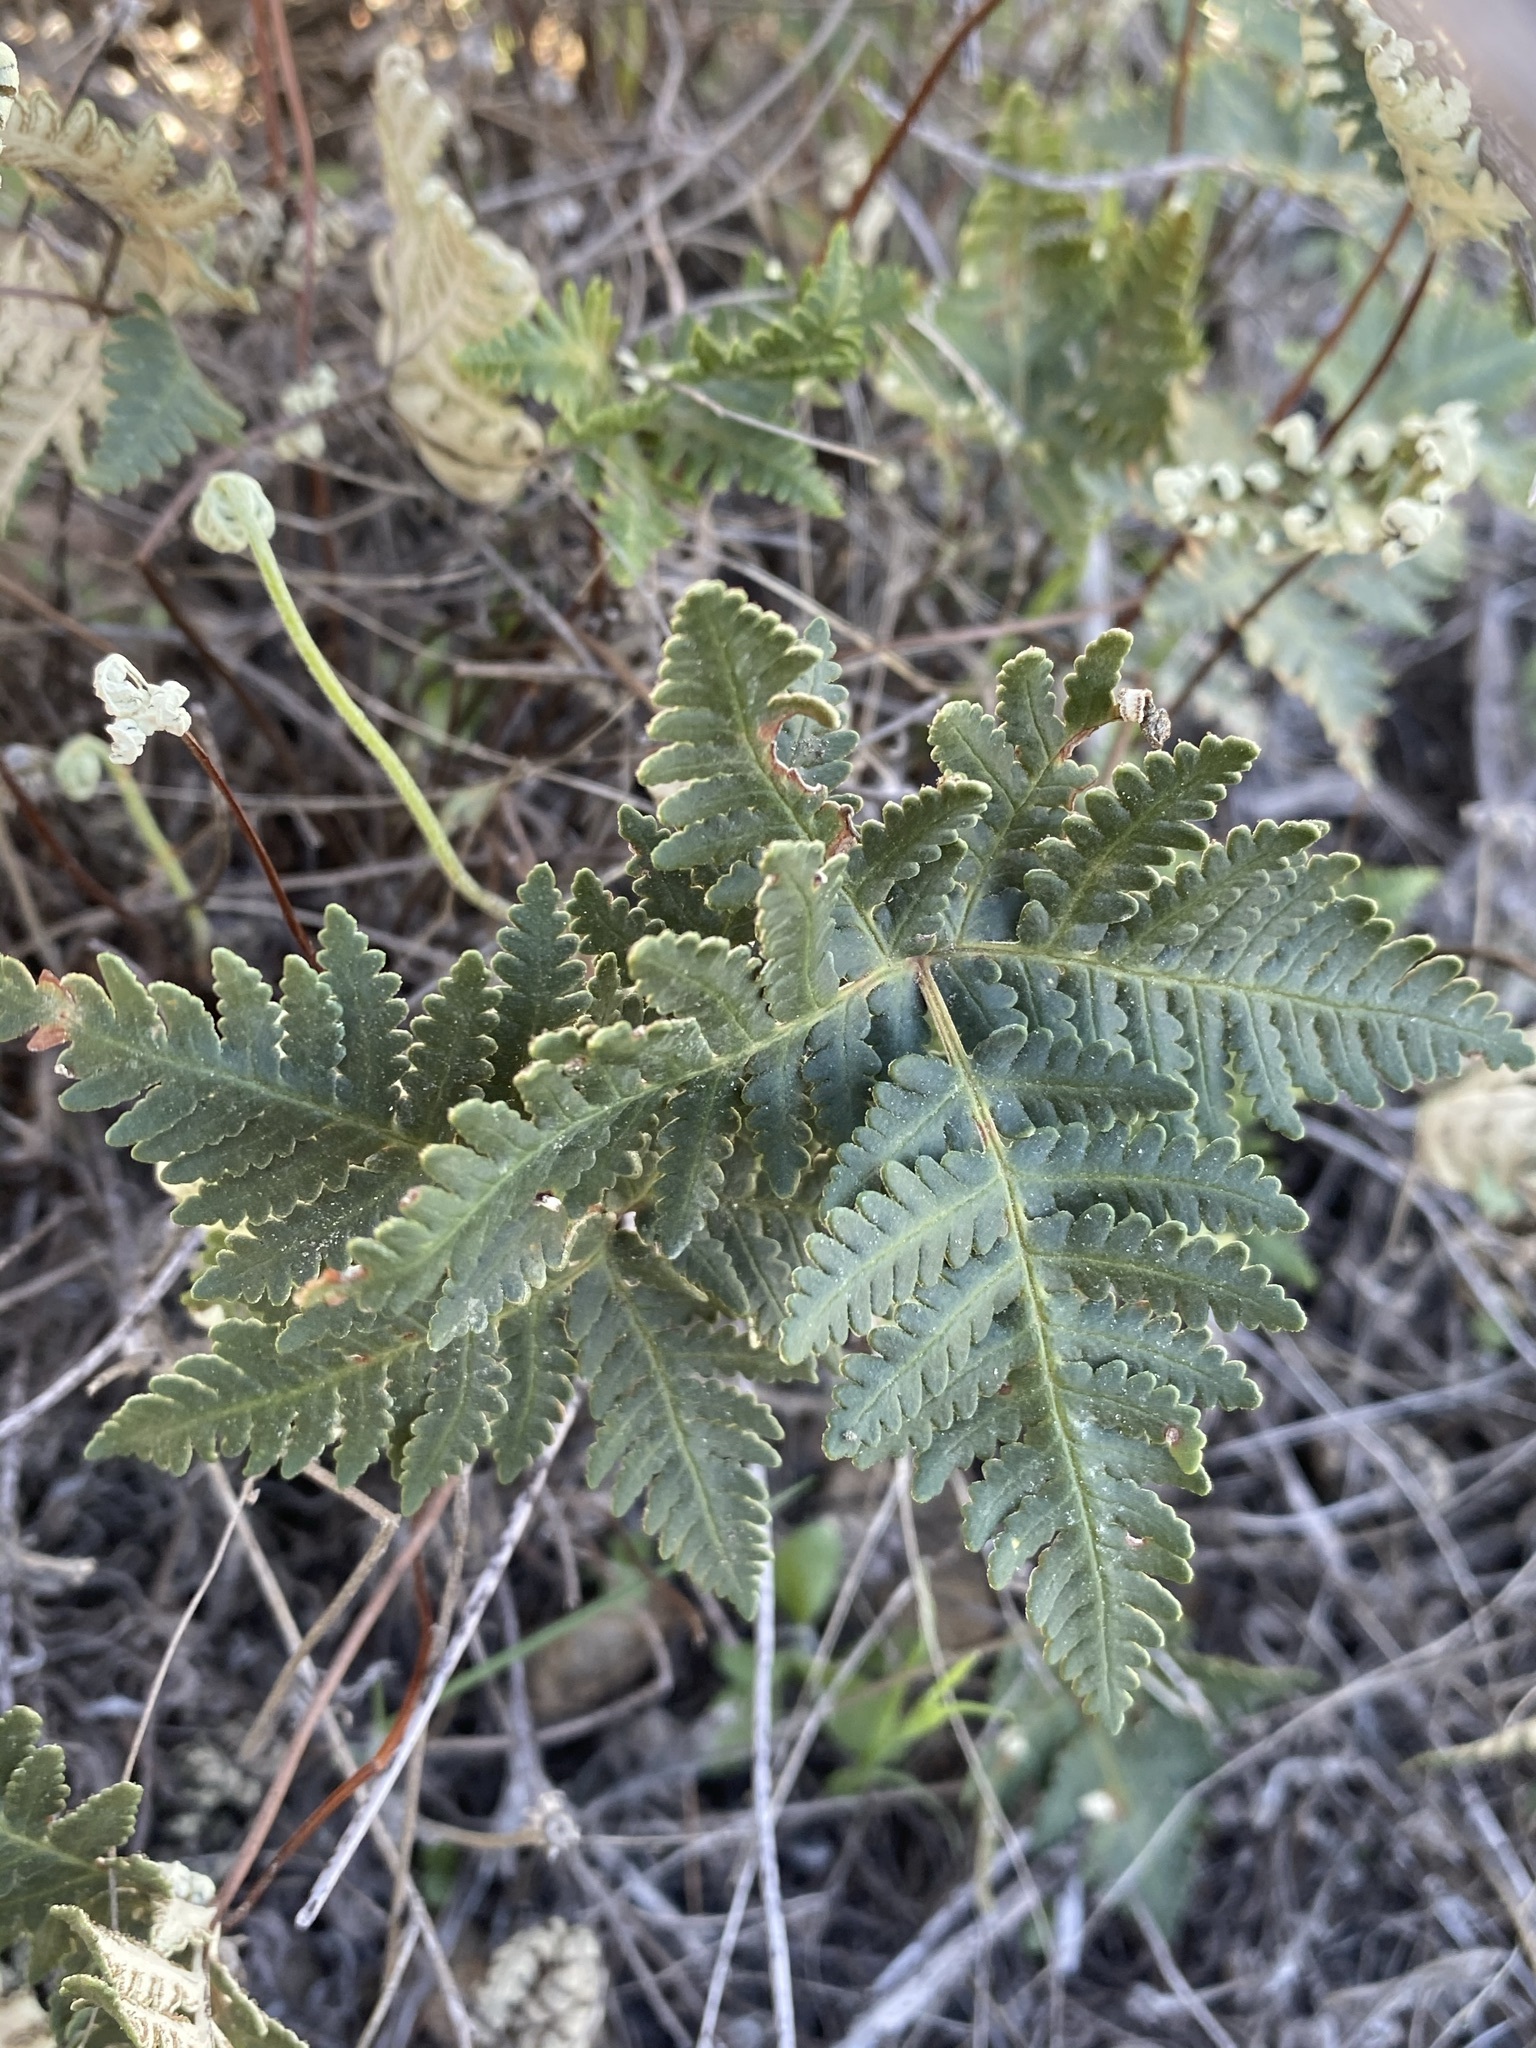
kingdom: Plantae
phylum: Tracheophyta
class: Polypodiopsida
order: Polypodiales
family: Pteridaceae
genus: Notholaena
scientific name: Notholaena standleyi
